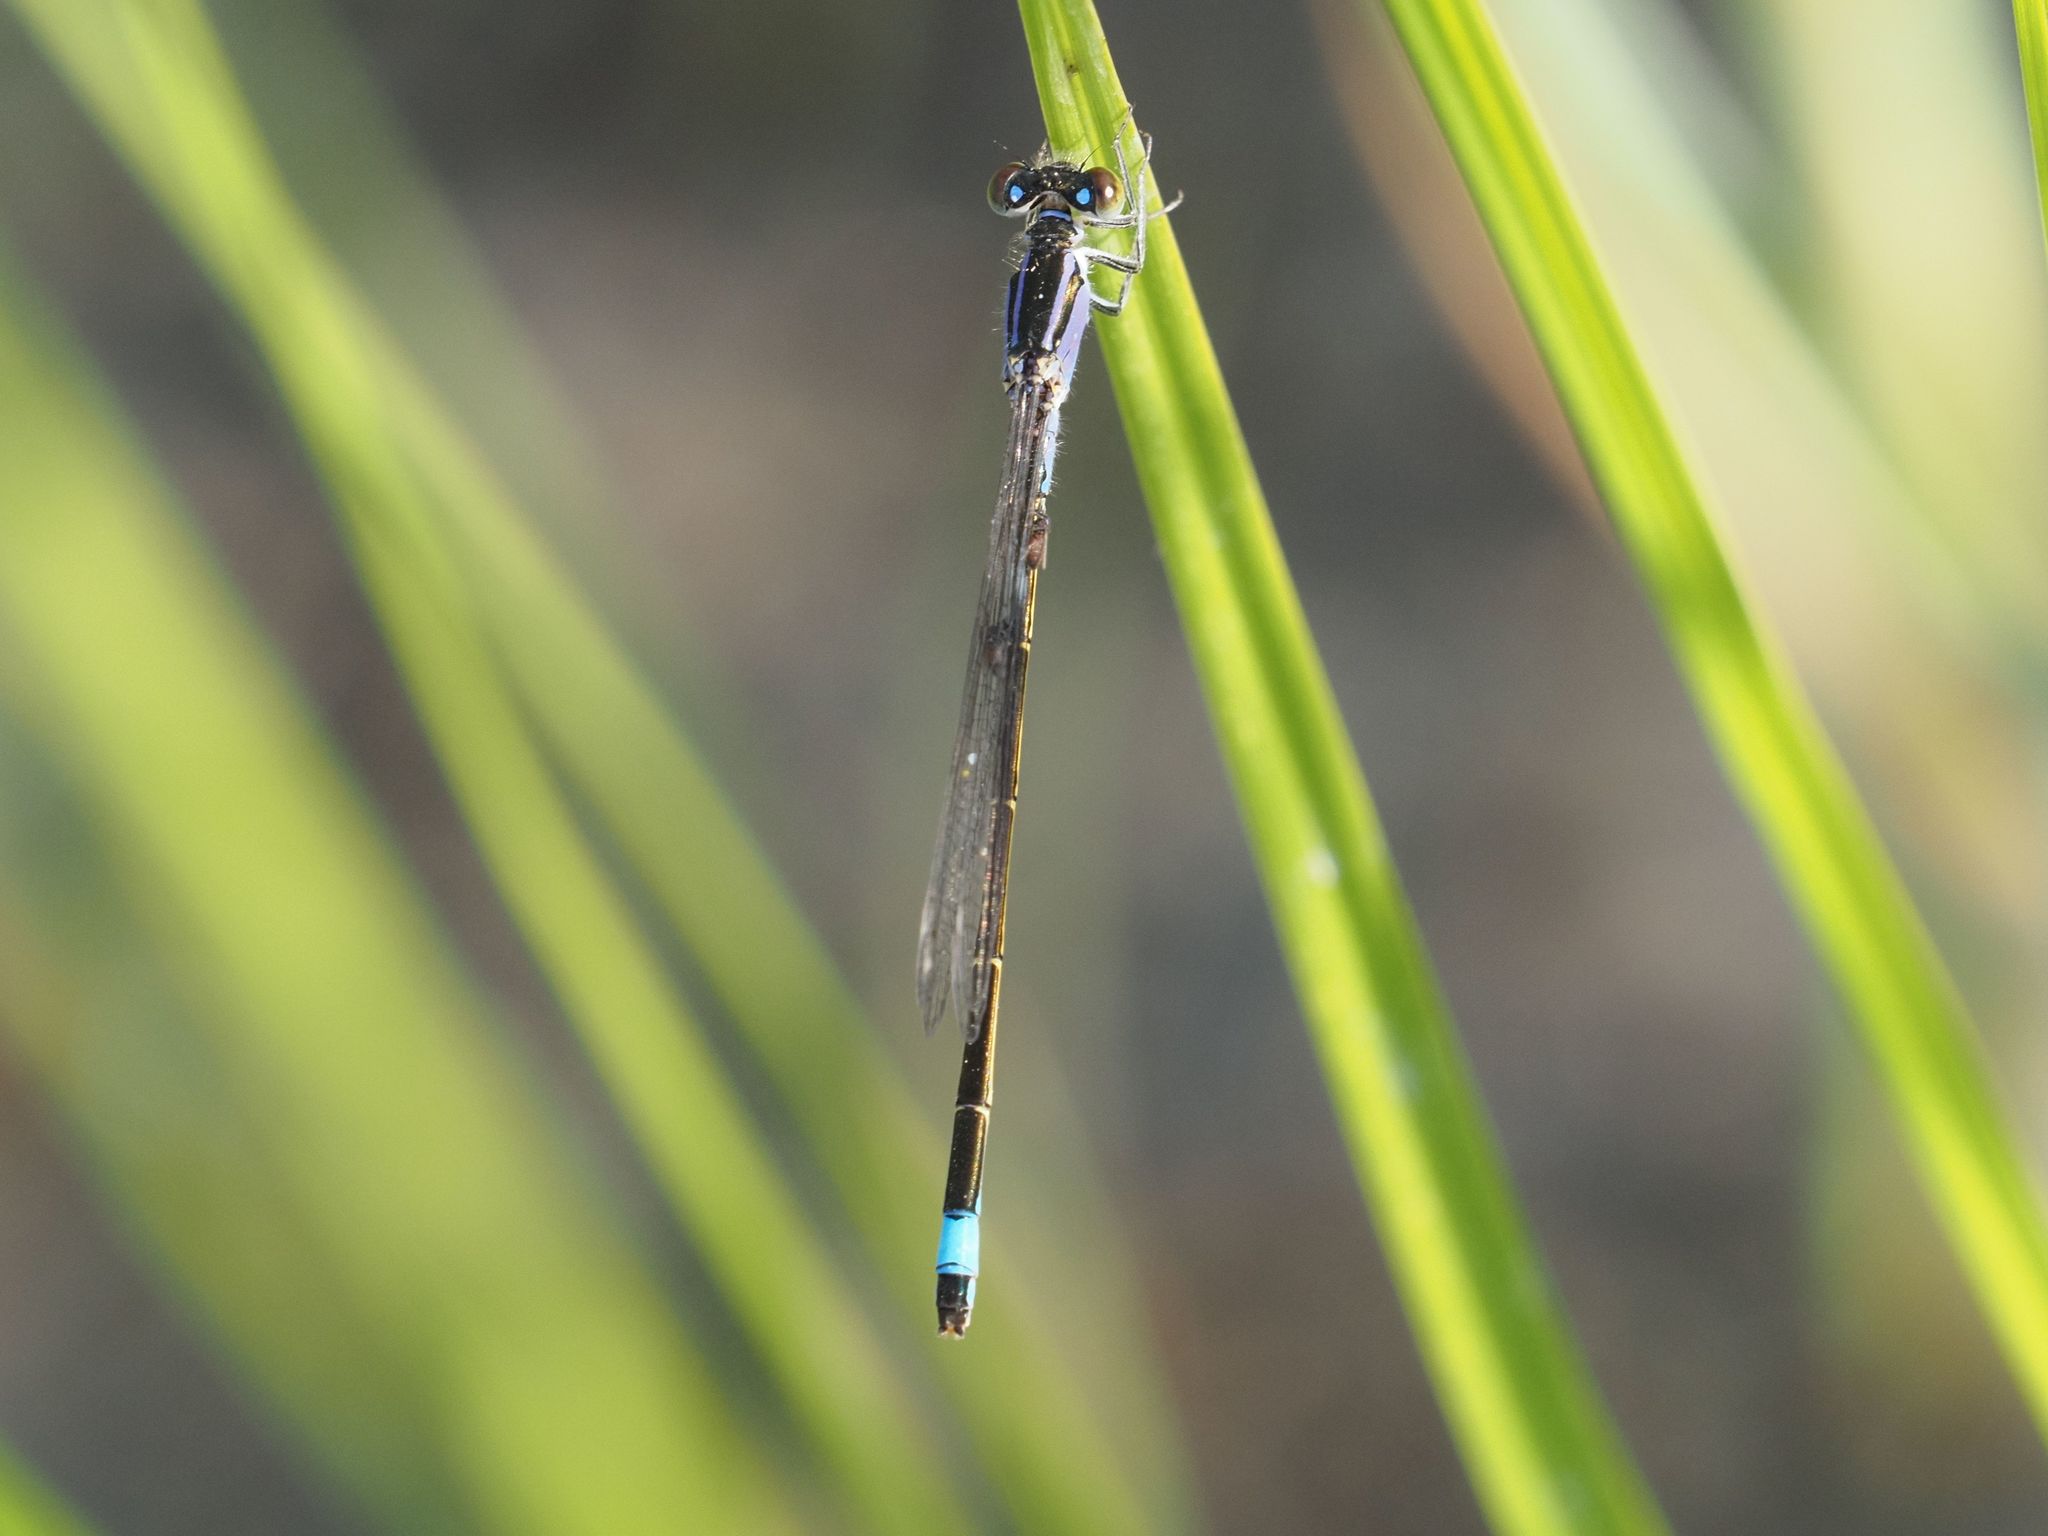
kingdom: Animalia
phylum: Arthropoda
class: Insecta
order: Odonata
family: Coenagrionidae
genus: Ischnura
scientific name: Ischnura elegans
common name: Blue-tailed damselfly
